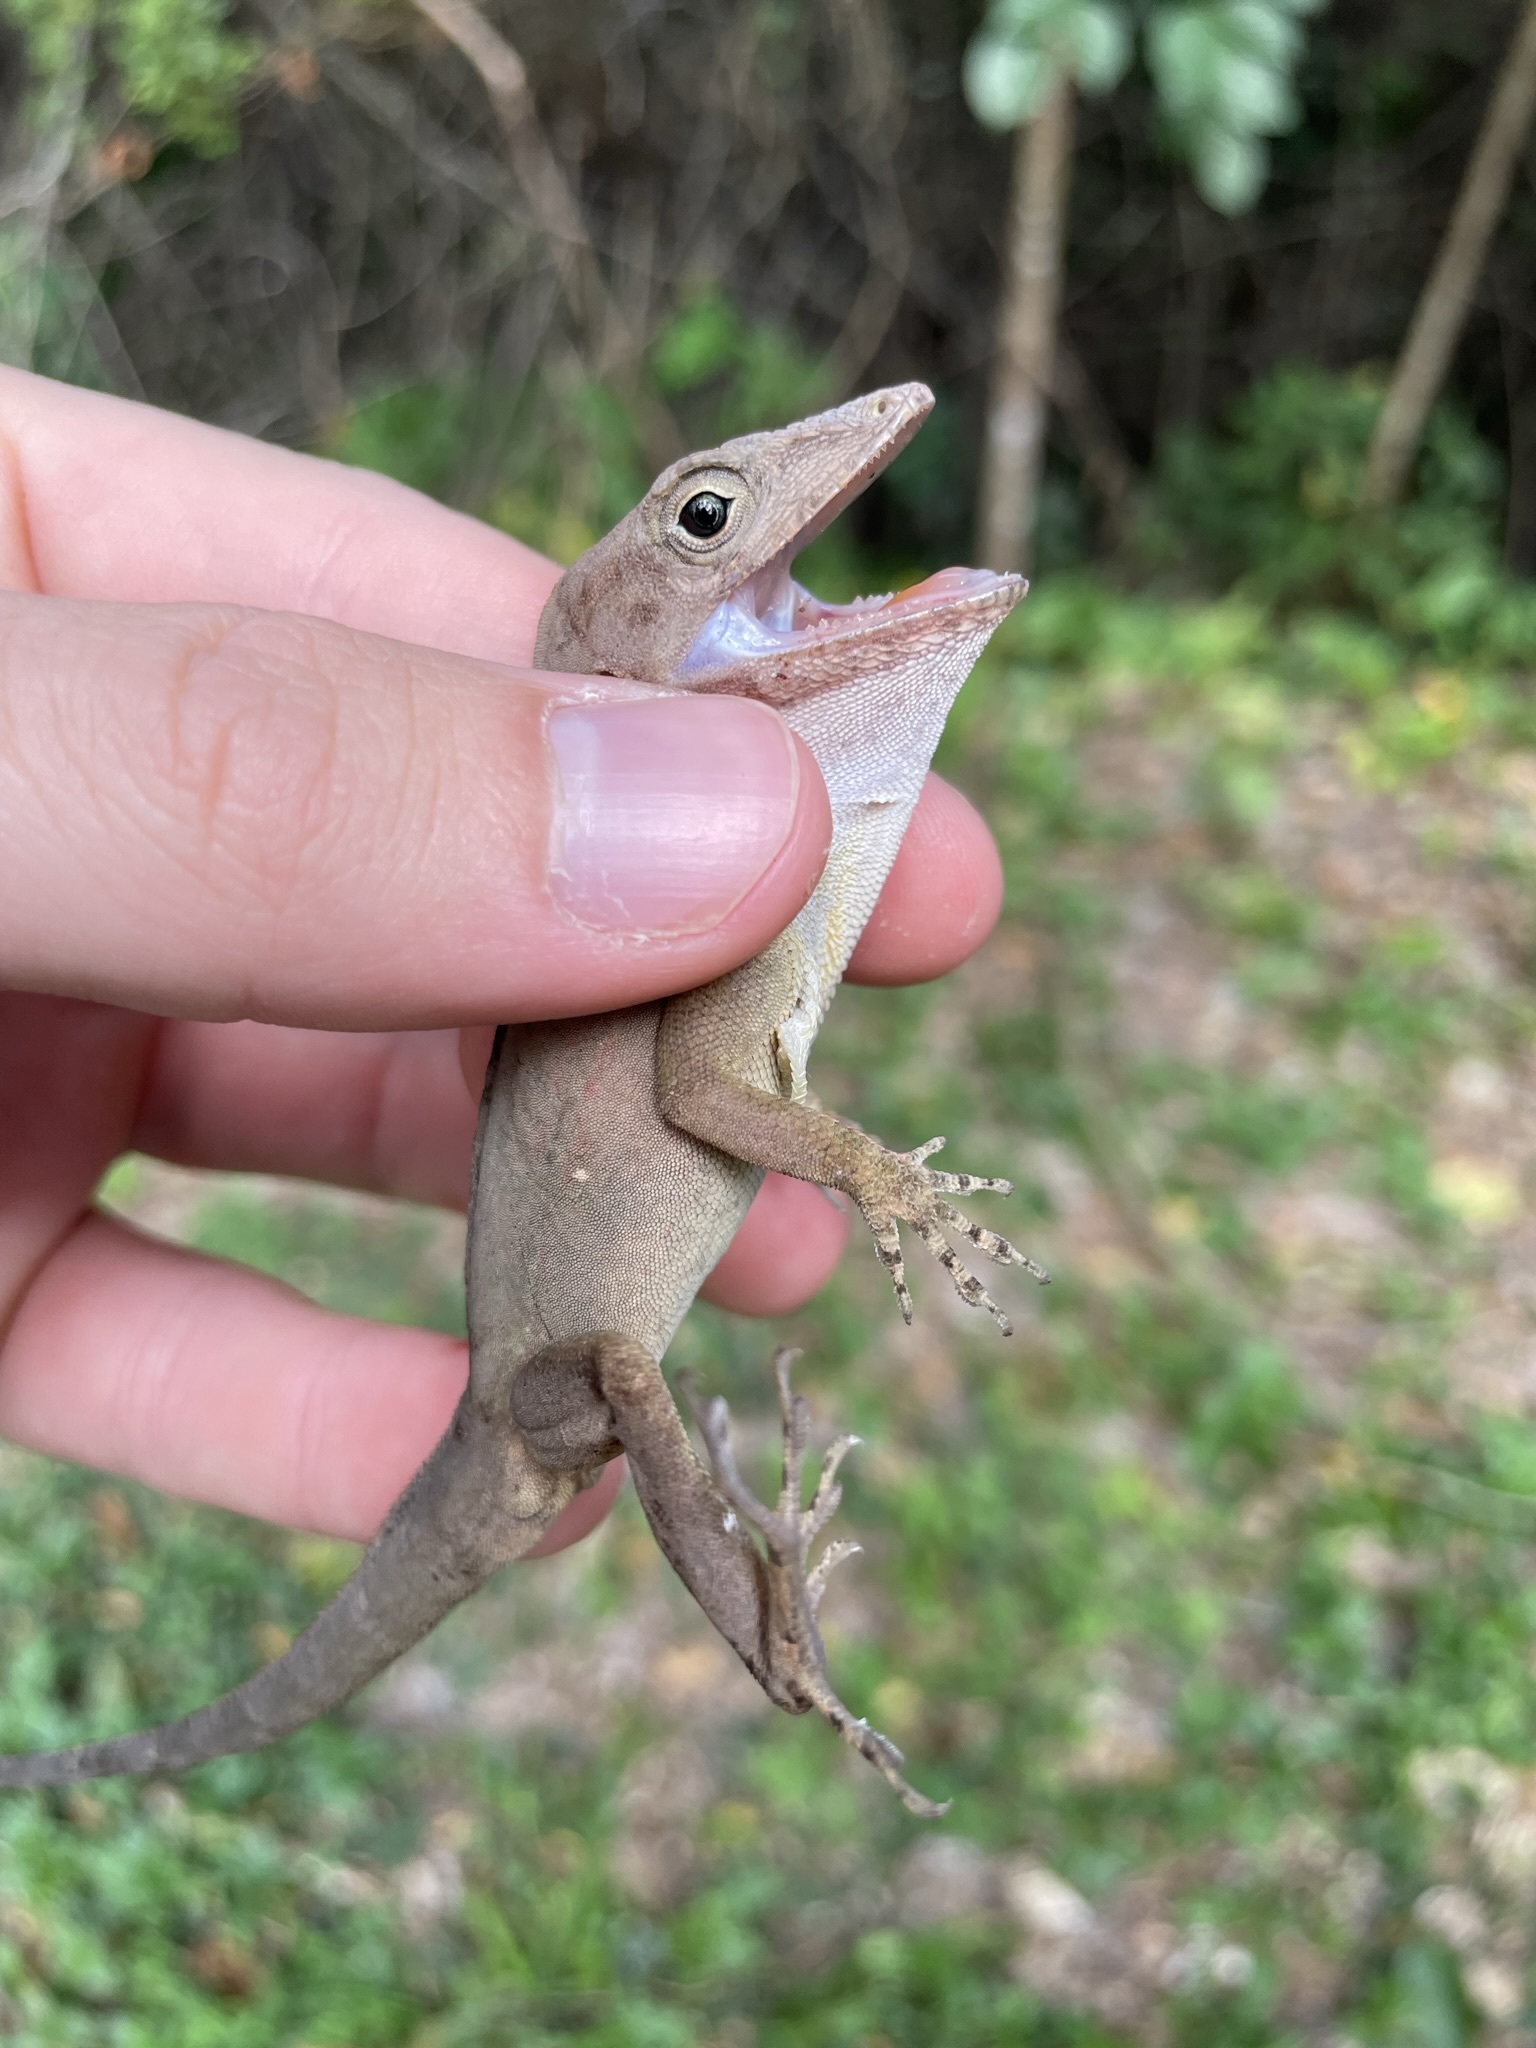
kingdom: Animalia
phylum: Chordata
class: Squamata
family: Dactyloidae
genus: Anolis
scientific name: Anolis cybotes
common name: Large-headed anole
